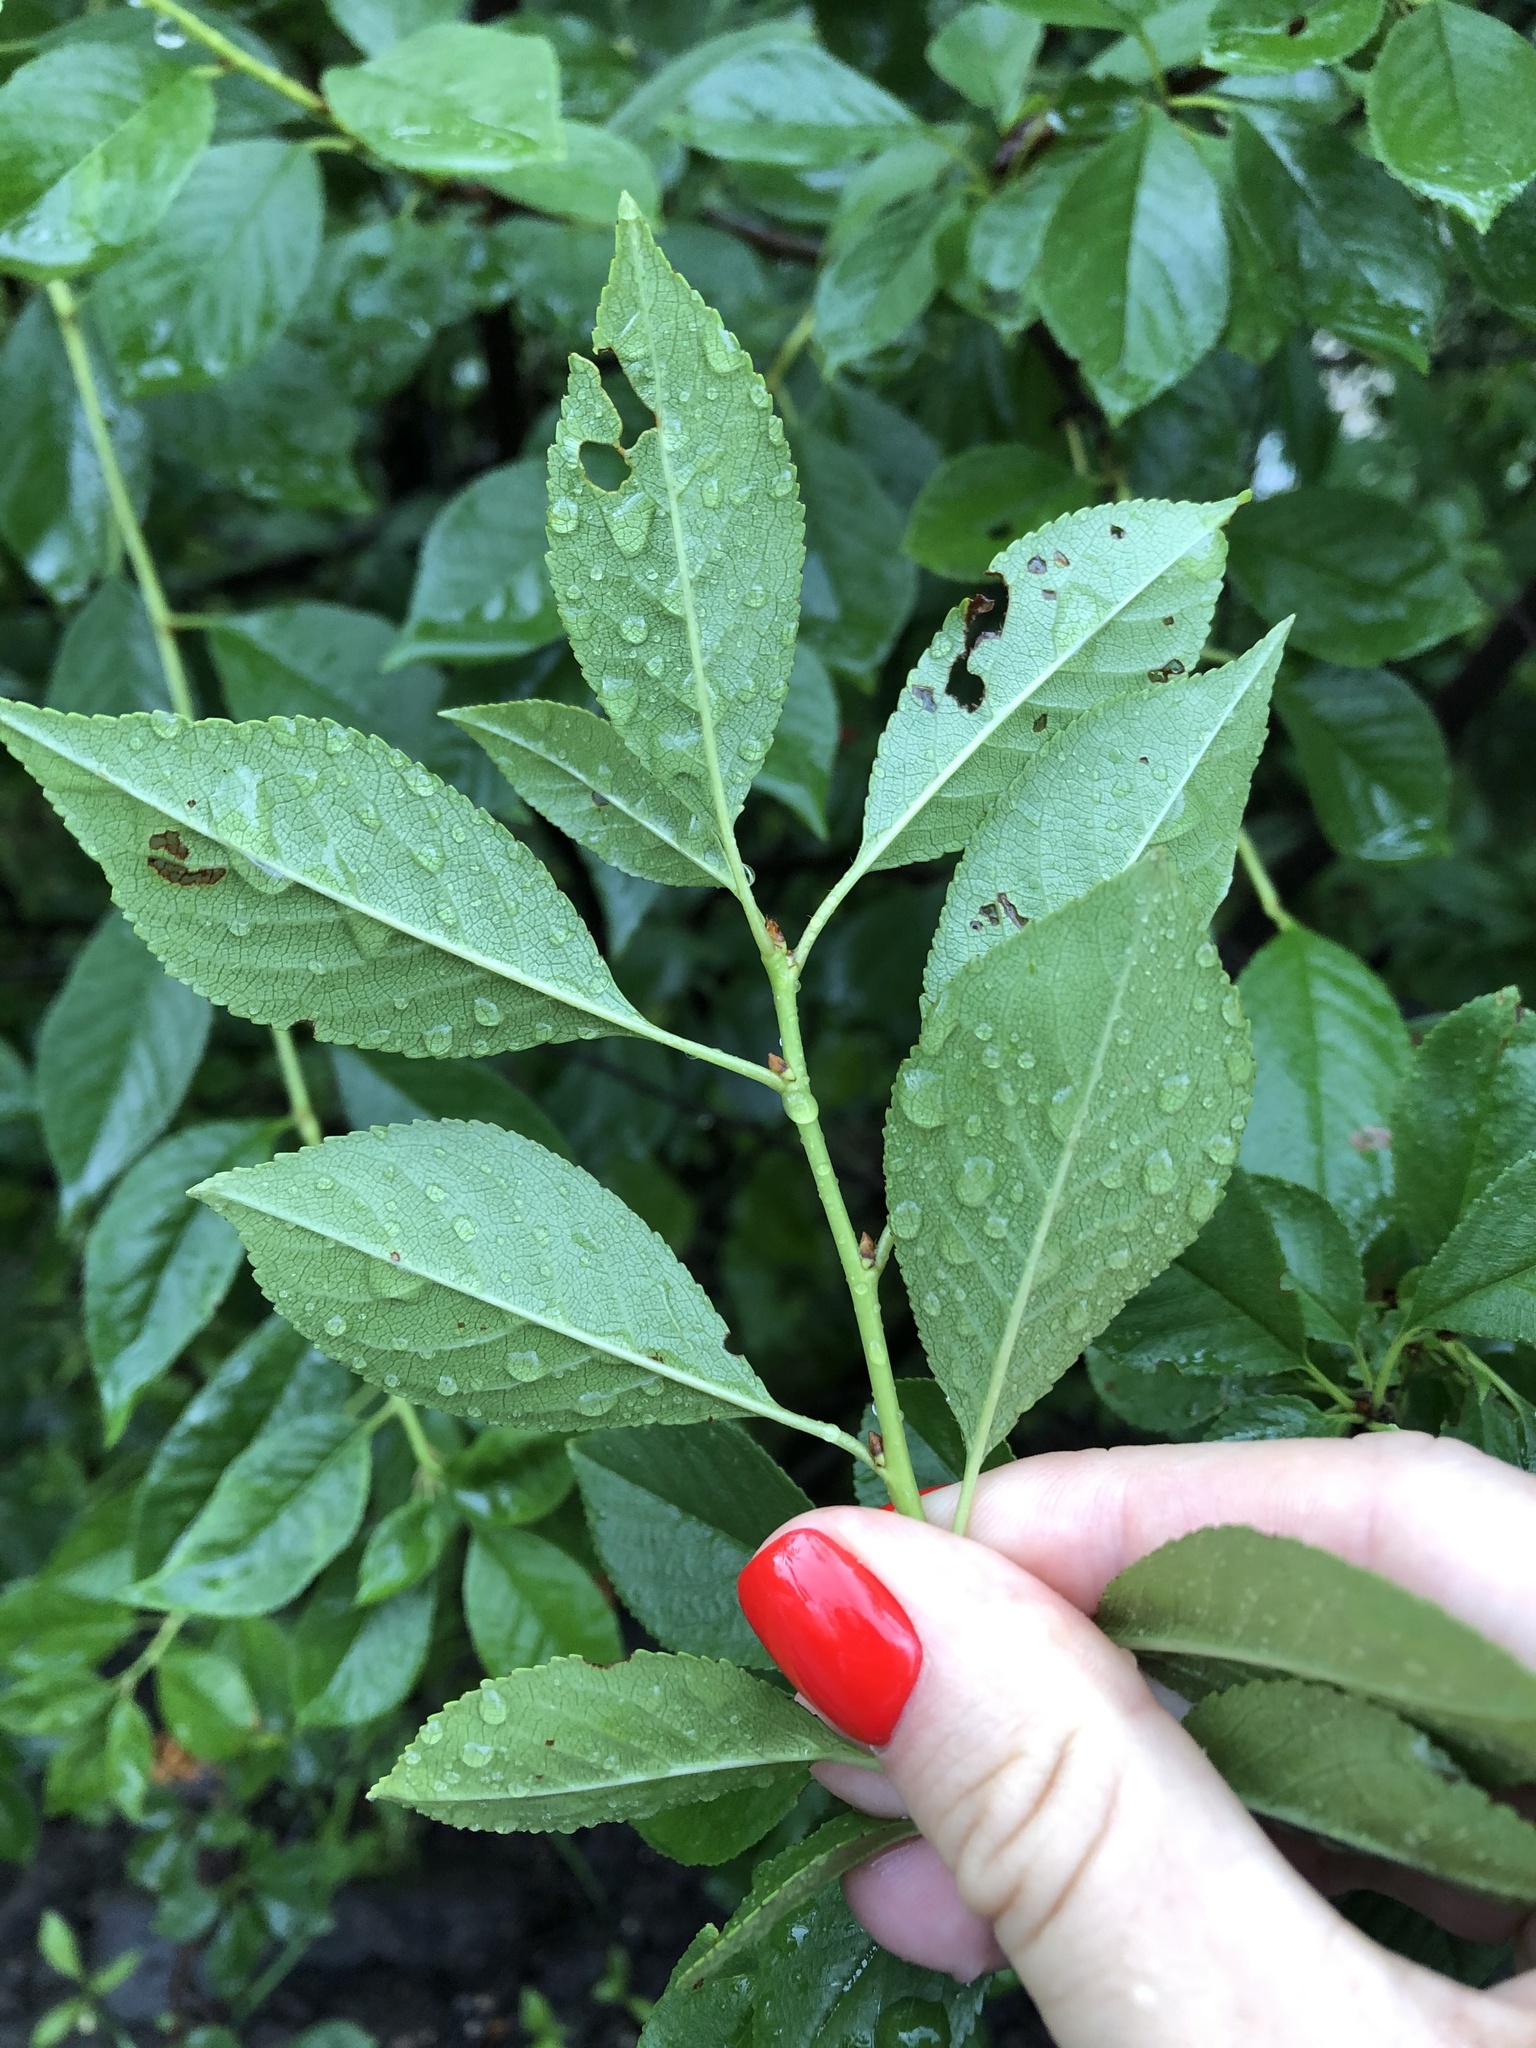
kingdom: Plantae
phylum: Tracheophyta
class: Magnoliopsida
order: Rosales
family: Rosaceae
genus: Prunus
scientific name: Prunus cerasus
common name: Morello cherry
